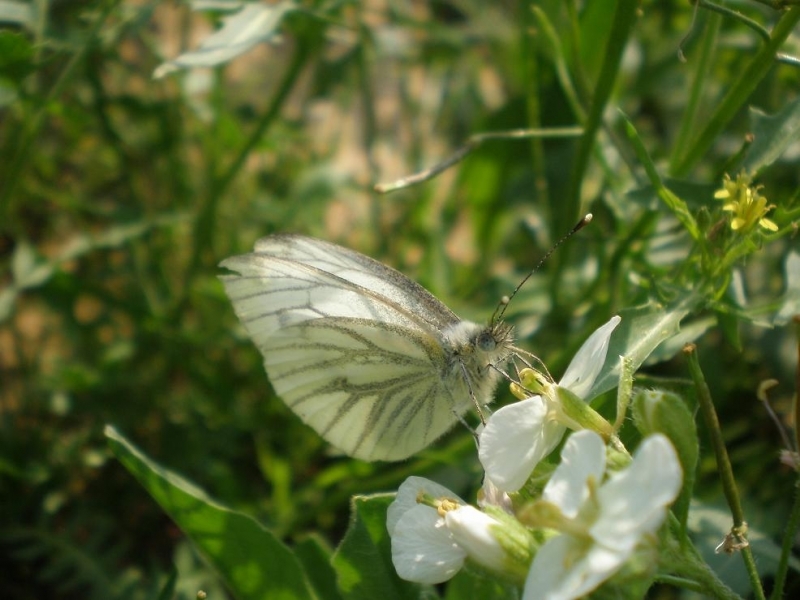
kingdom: Animalia
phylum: Arthropoda
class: Insecta
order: Lepidoptera
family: Pieridae
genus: Pieris
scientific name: Pieris napi
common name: Green-veined white
